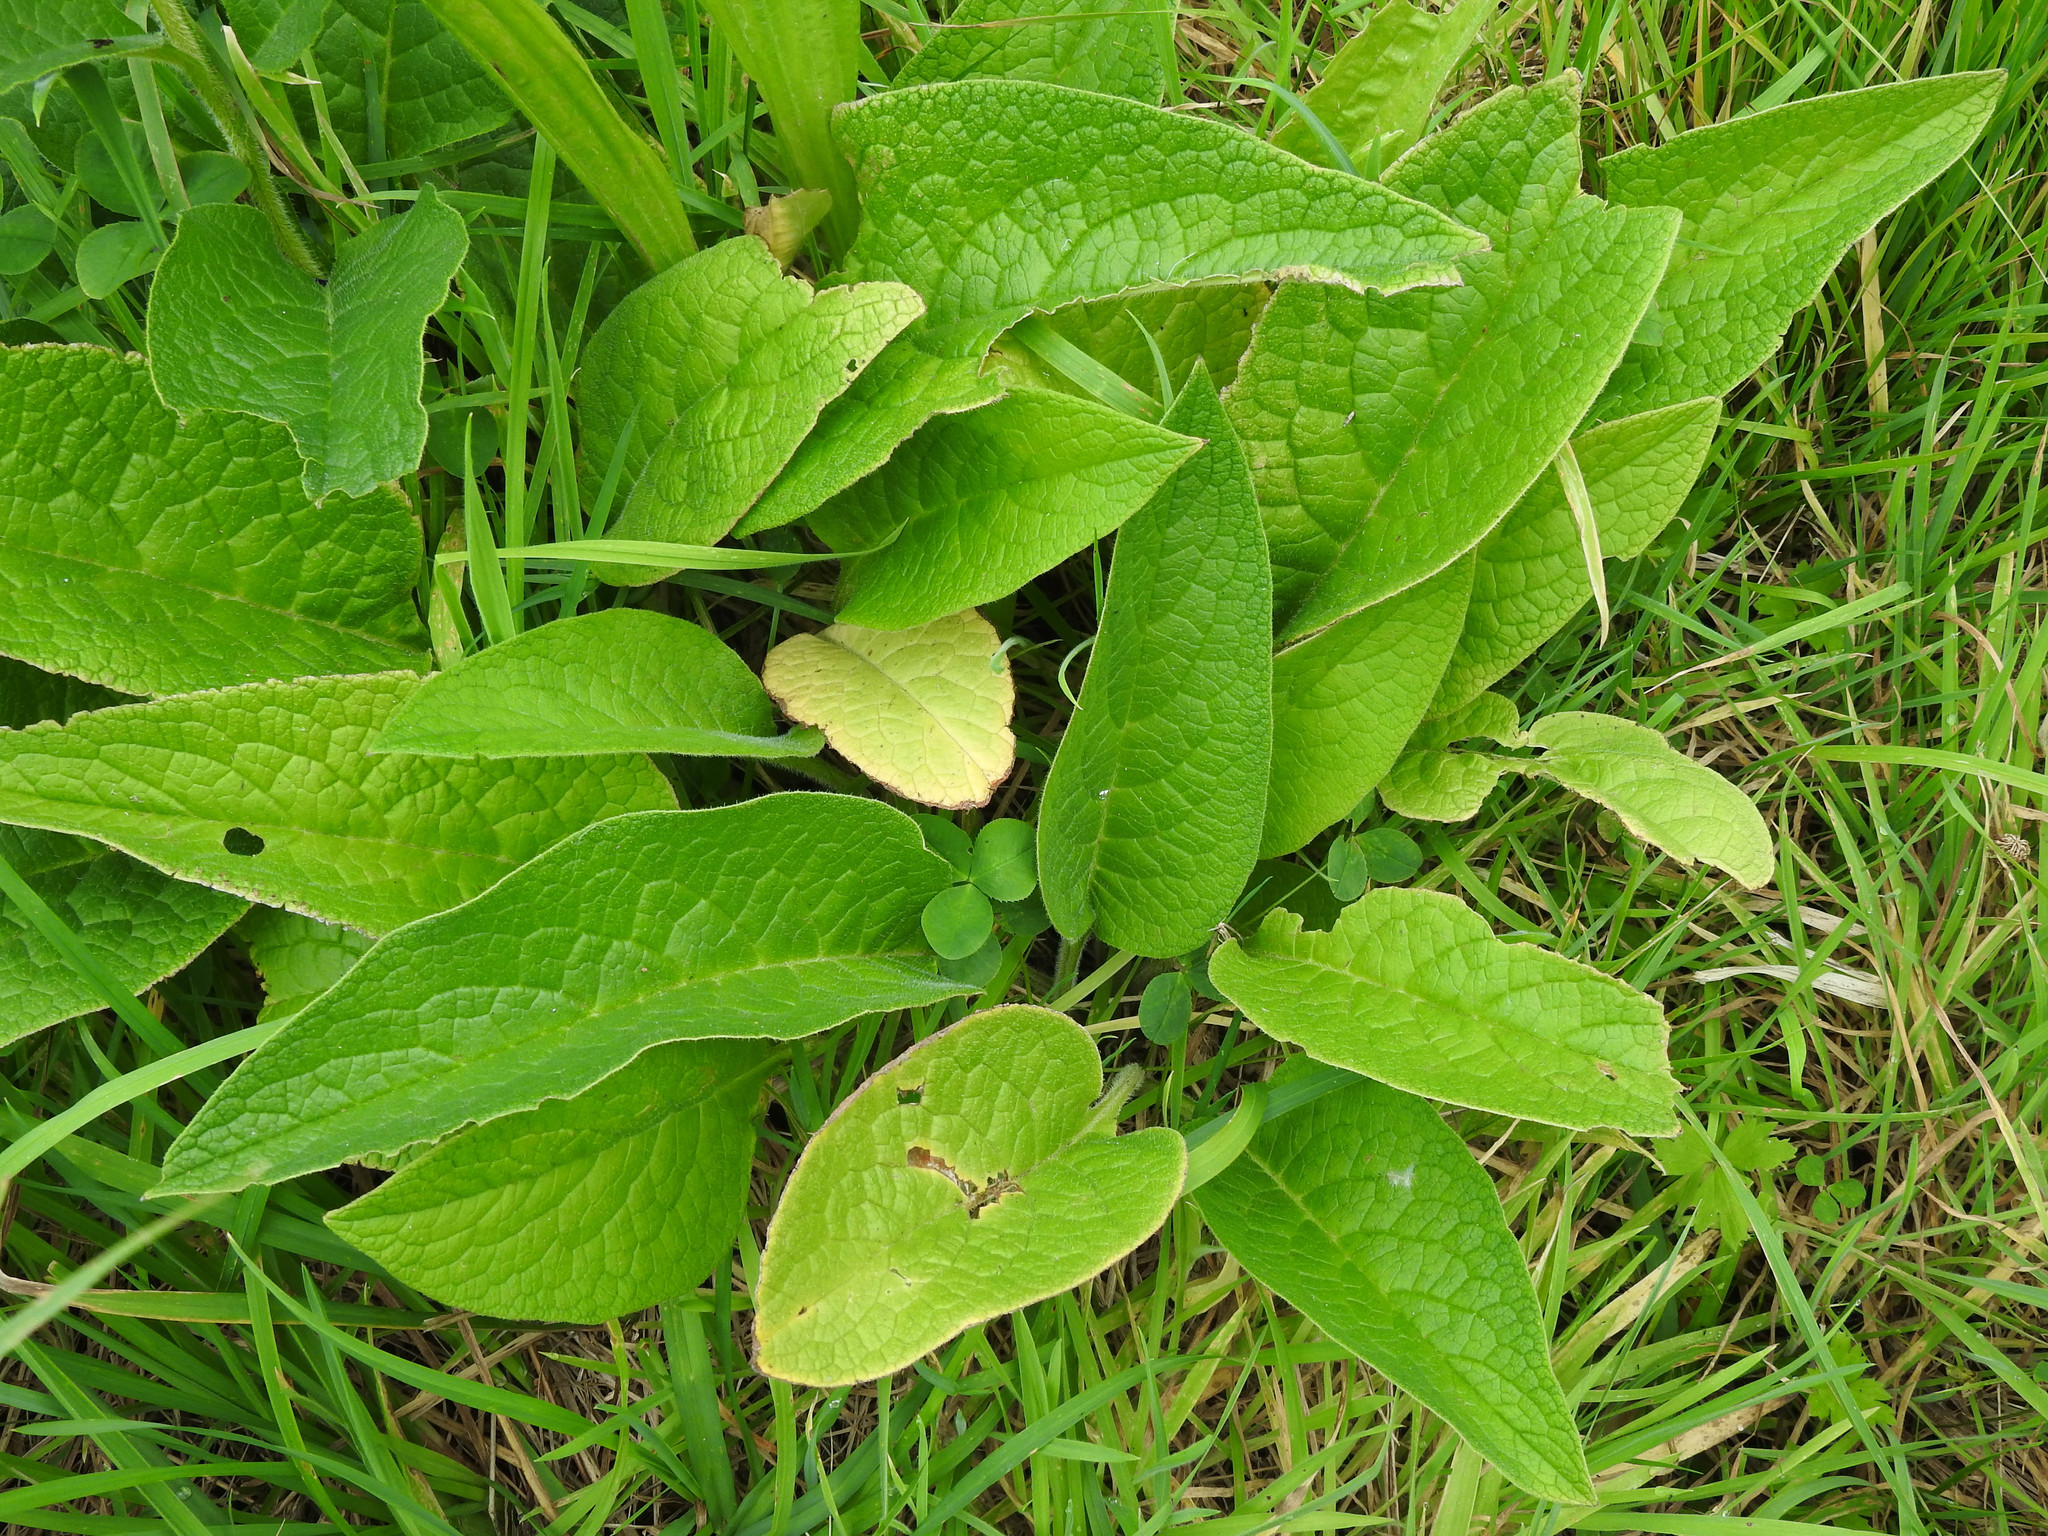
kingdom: Plantae
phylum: Tracheophyta
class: Magnoliopsida
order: Boraginales
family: Boraginaceae
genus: Symphytum
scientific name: Symphytum officinale
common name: Common comfrey
